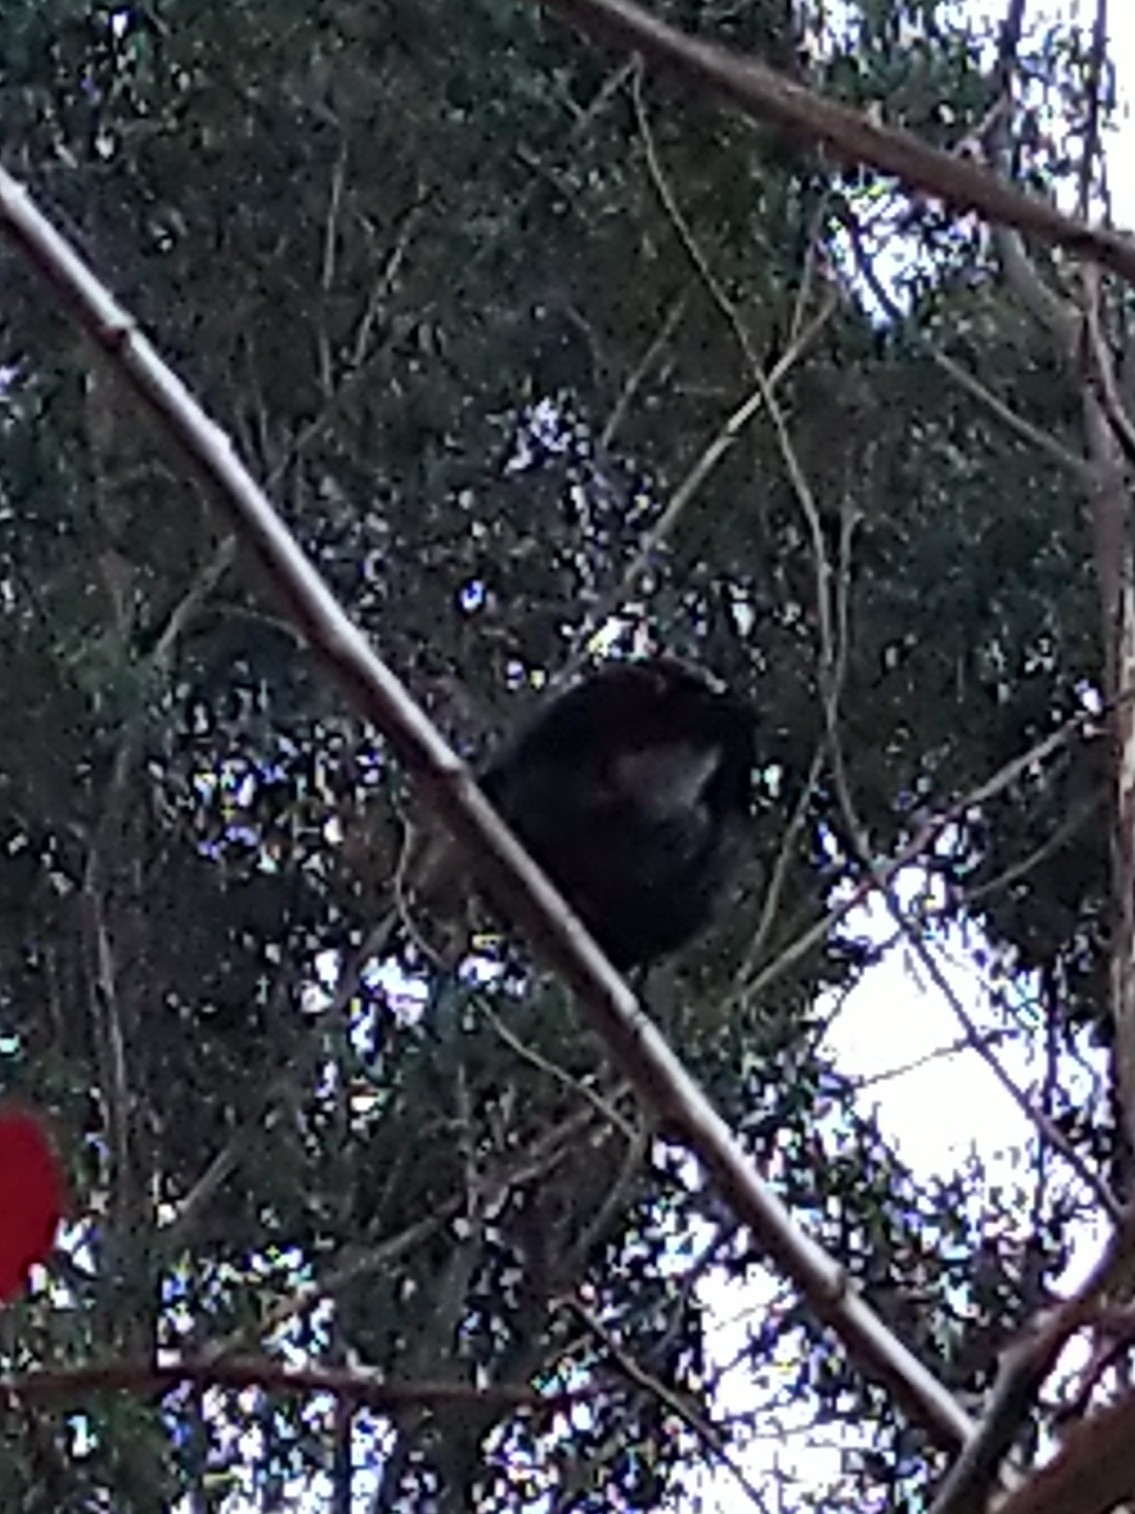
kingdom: Animalia
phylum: Chordata
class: Aves
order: Passeriformes
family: Muscicapidae
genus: Saxicola
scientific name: Saxicola caprata
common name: Pied bush chat
